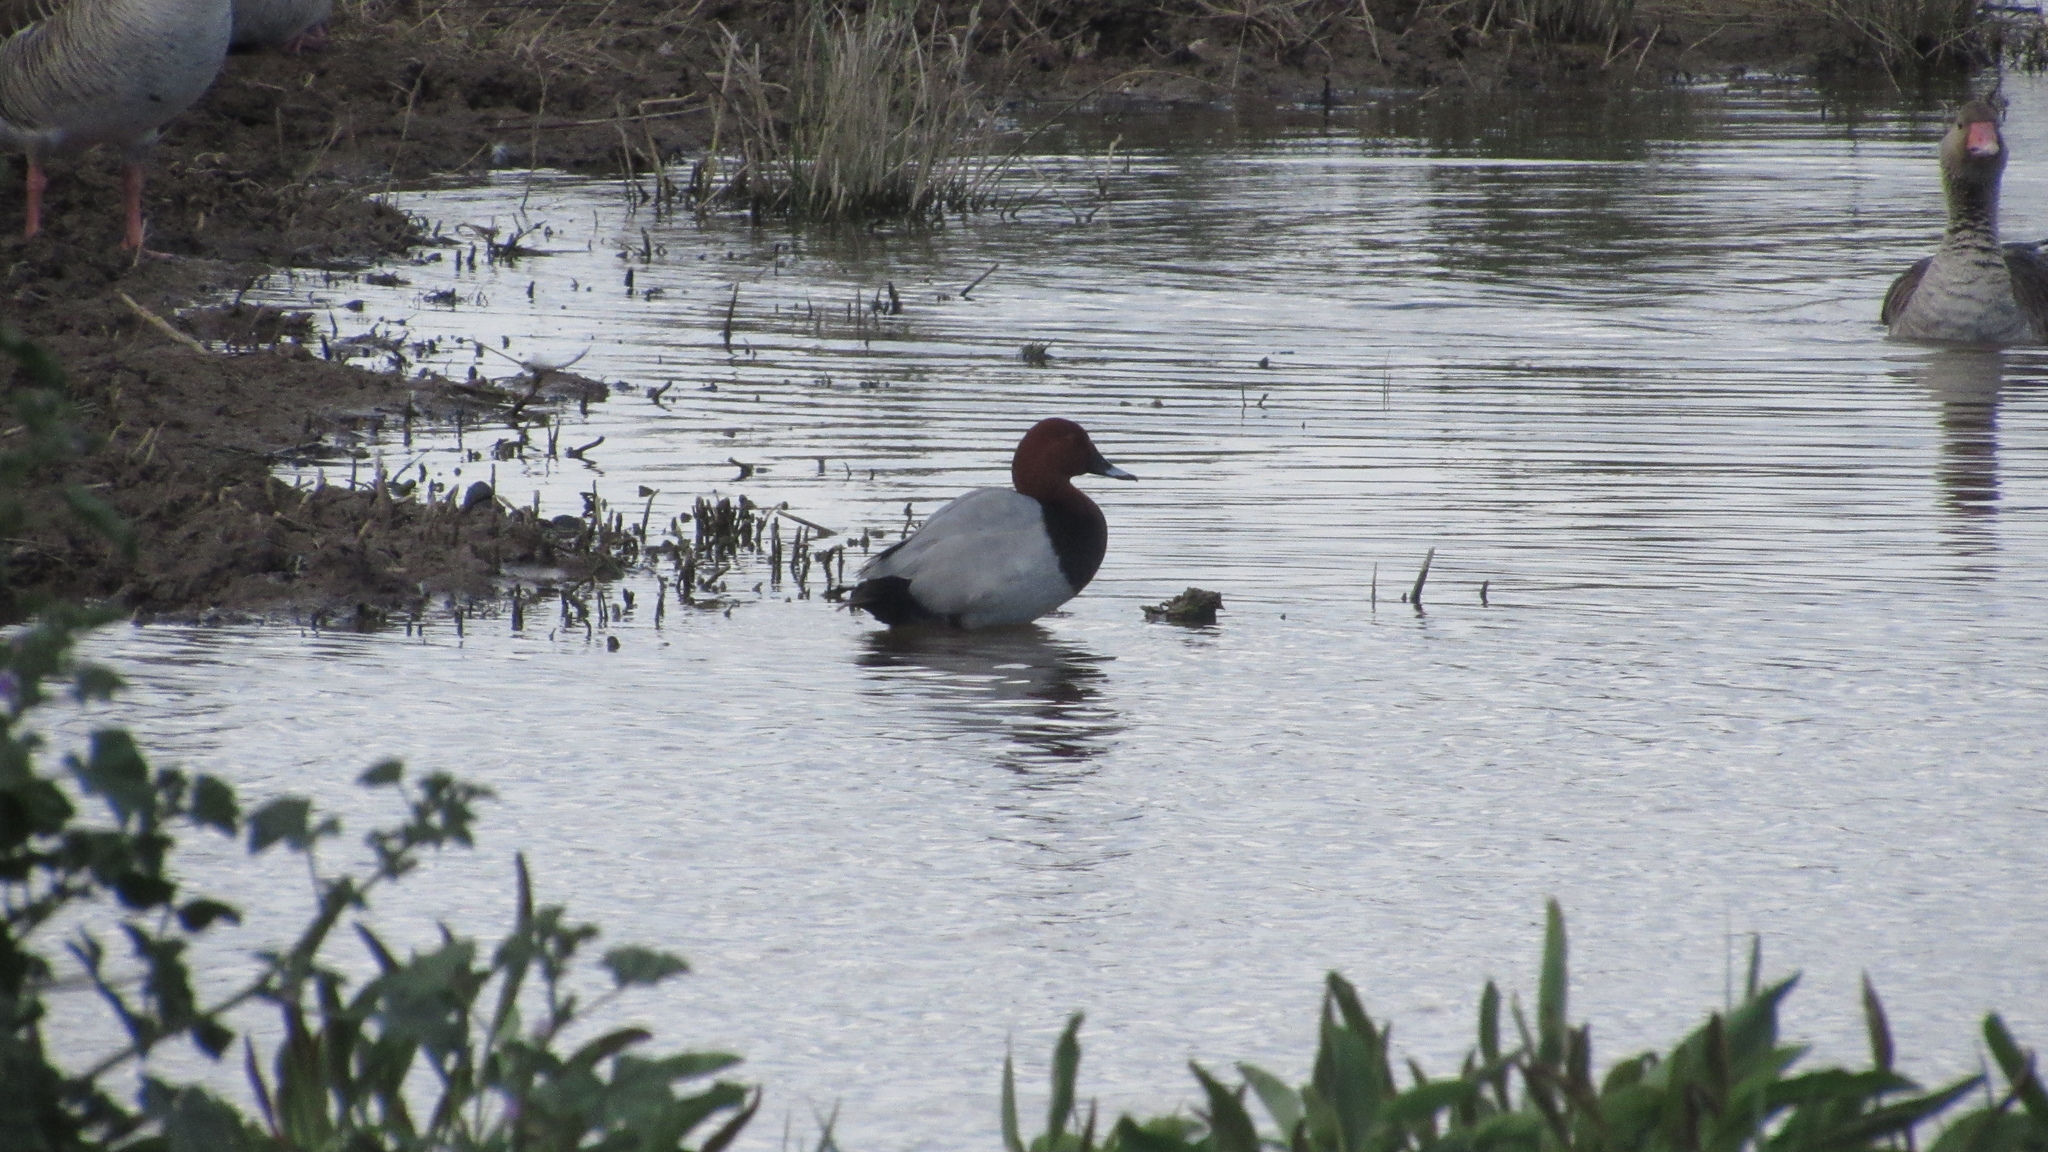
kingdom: Animalia
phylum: Chordata
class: Aves
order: Anseriformes
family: Anatidae
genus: Aythya
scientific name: Aythya ferina
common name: Common pochard
